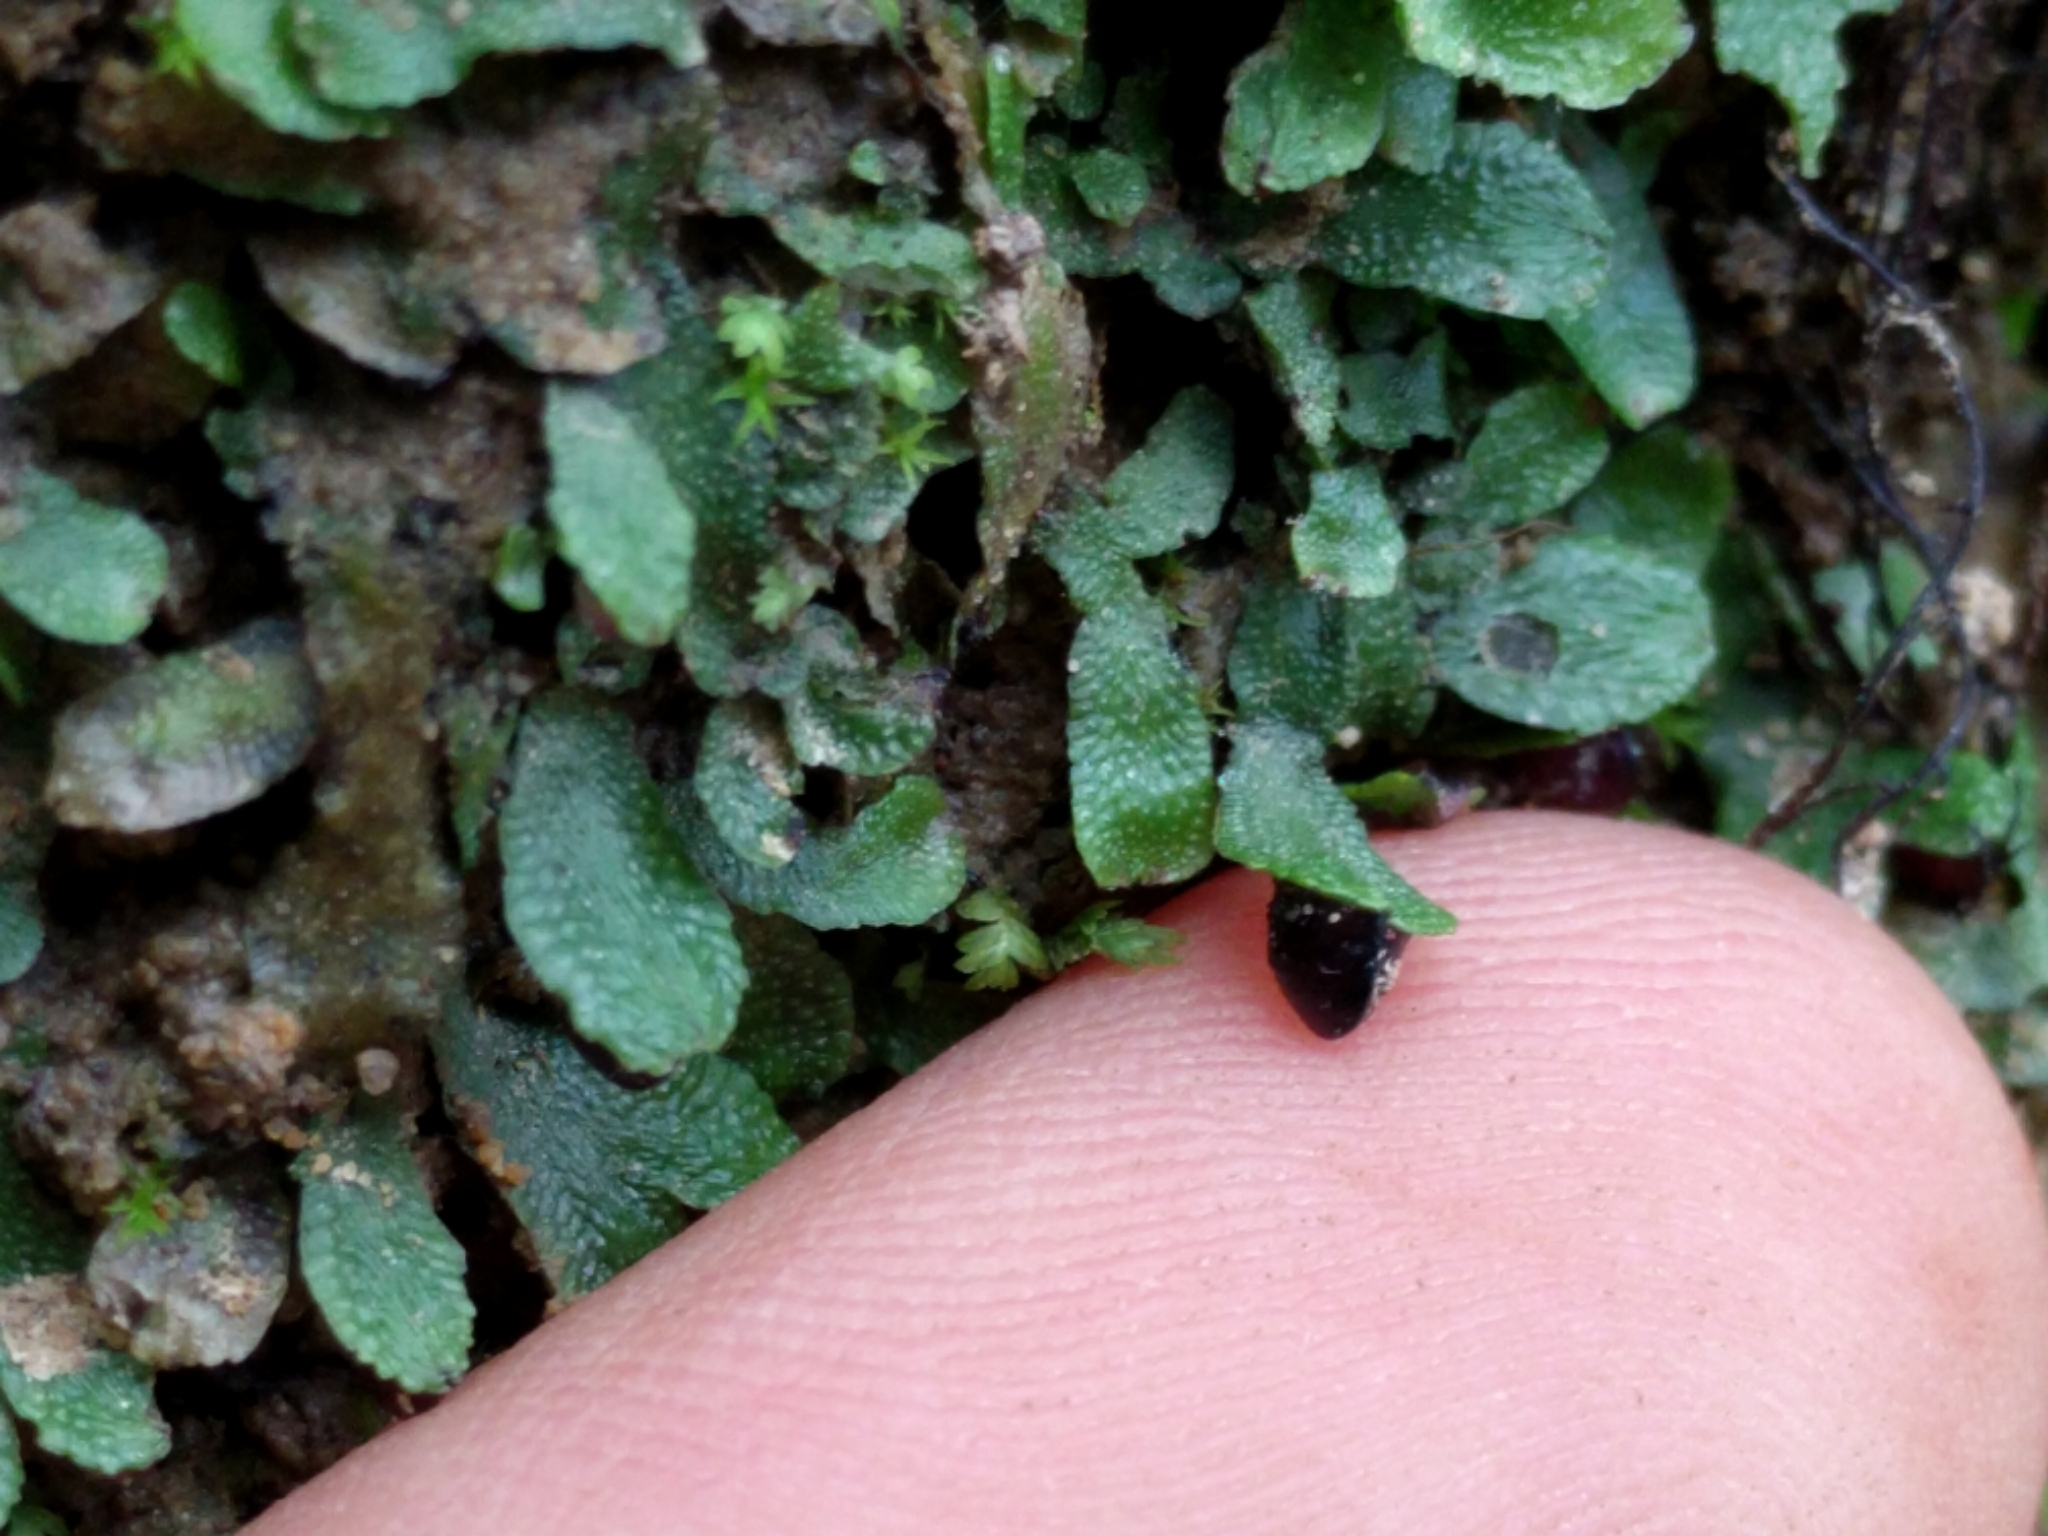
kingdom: Plantae
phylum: Marchantiophyta
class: Marchantiopsida
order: Marchantiales
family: Targioniaceae
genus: Targionia
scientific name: Targionia hypophylla
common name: Orobus-seed liverwort
